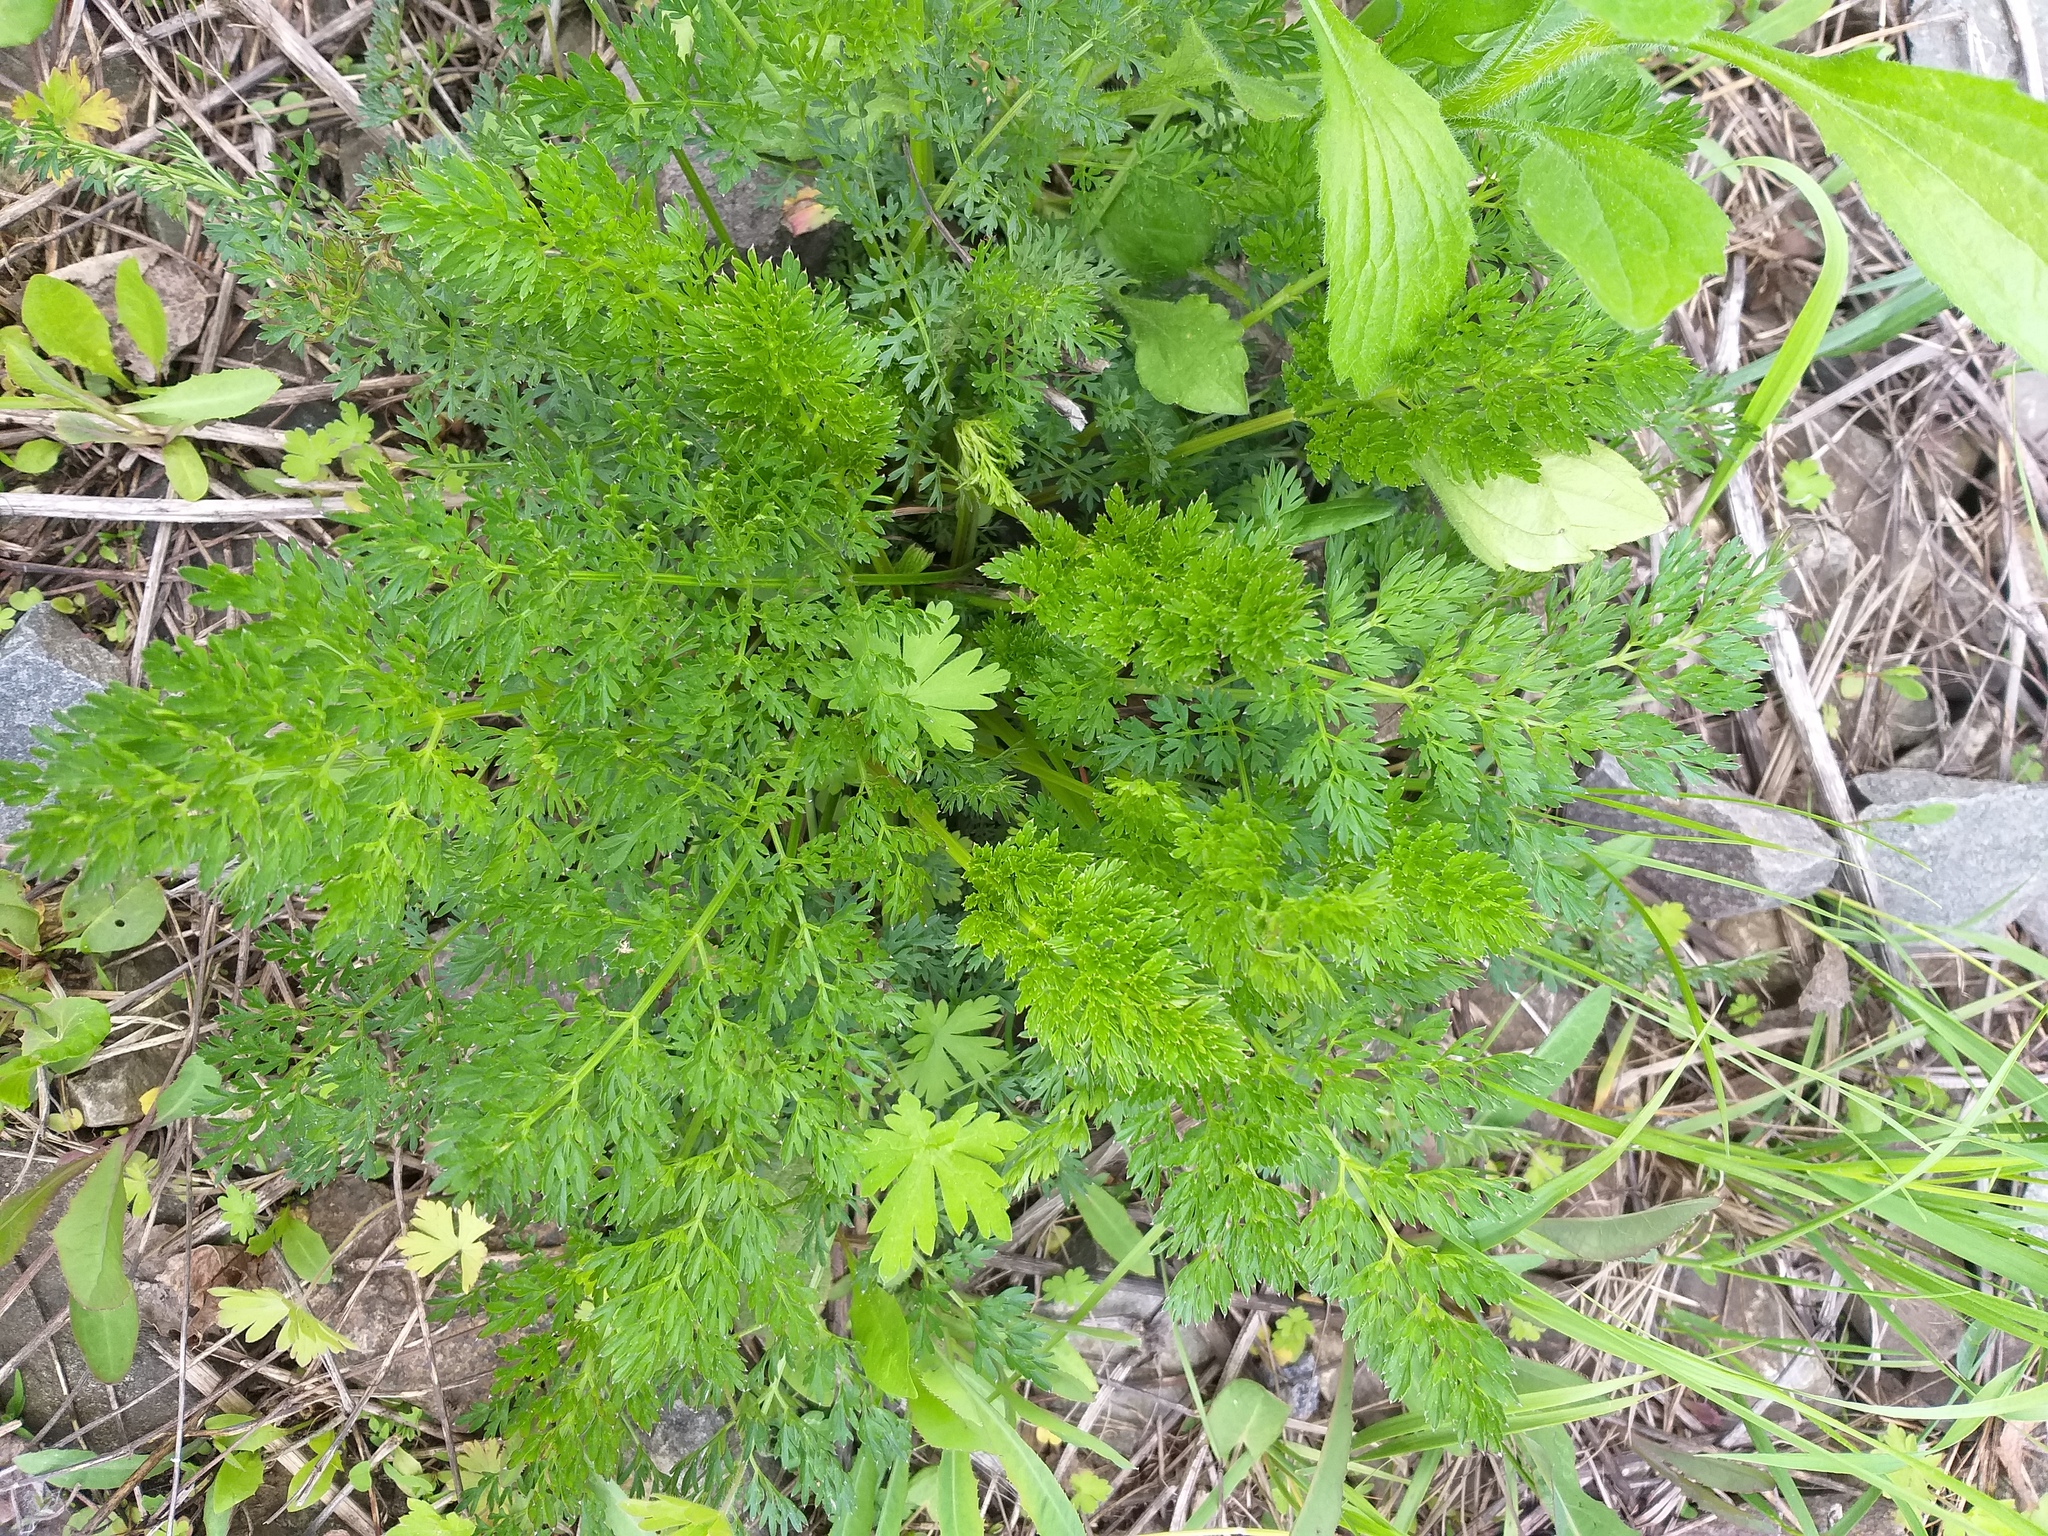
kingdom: Plantae
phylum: Tracheophyta
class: Magnoliopsida
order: Apiales
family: Apiaceae
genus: Selinum
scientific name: Selinum carvifolia
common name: Cambridge milk-parsley
